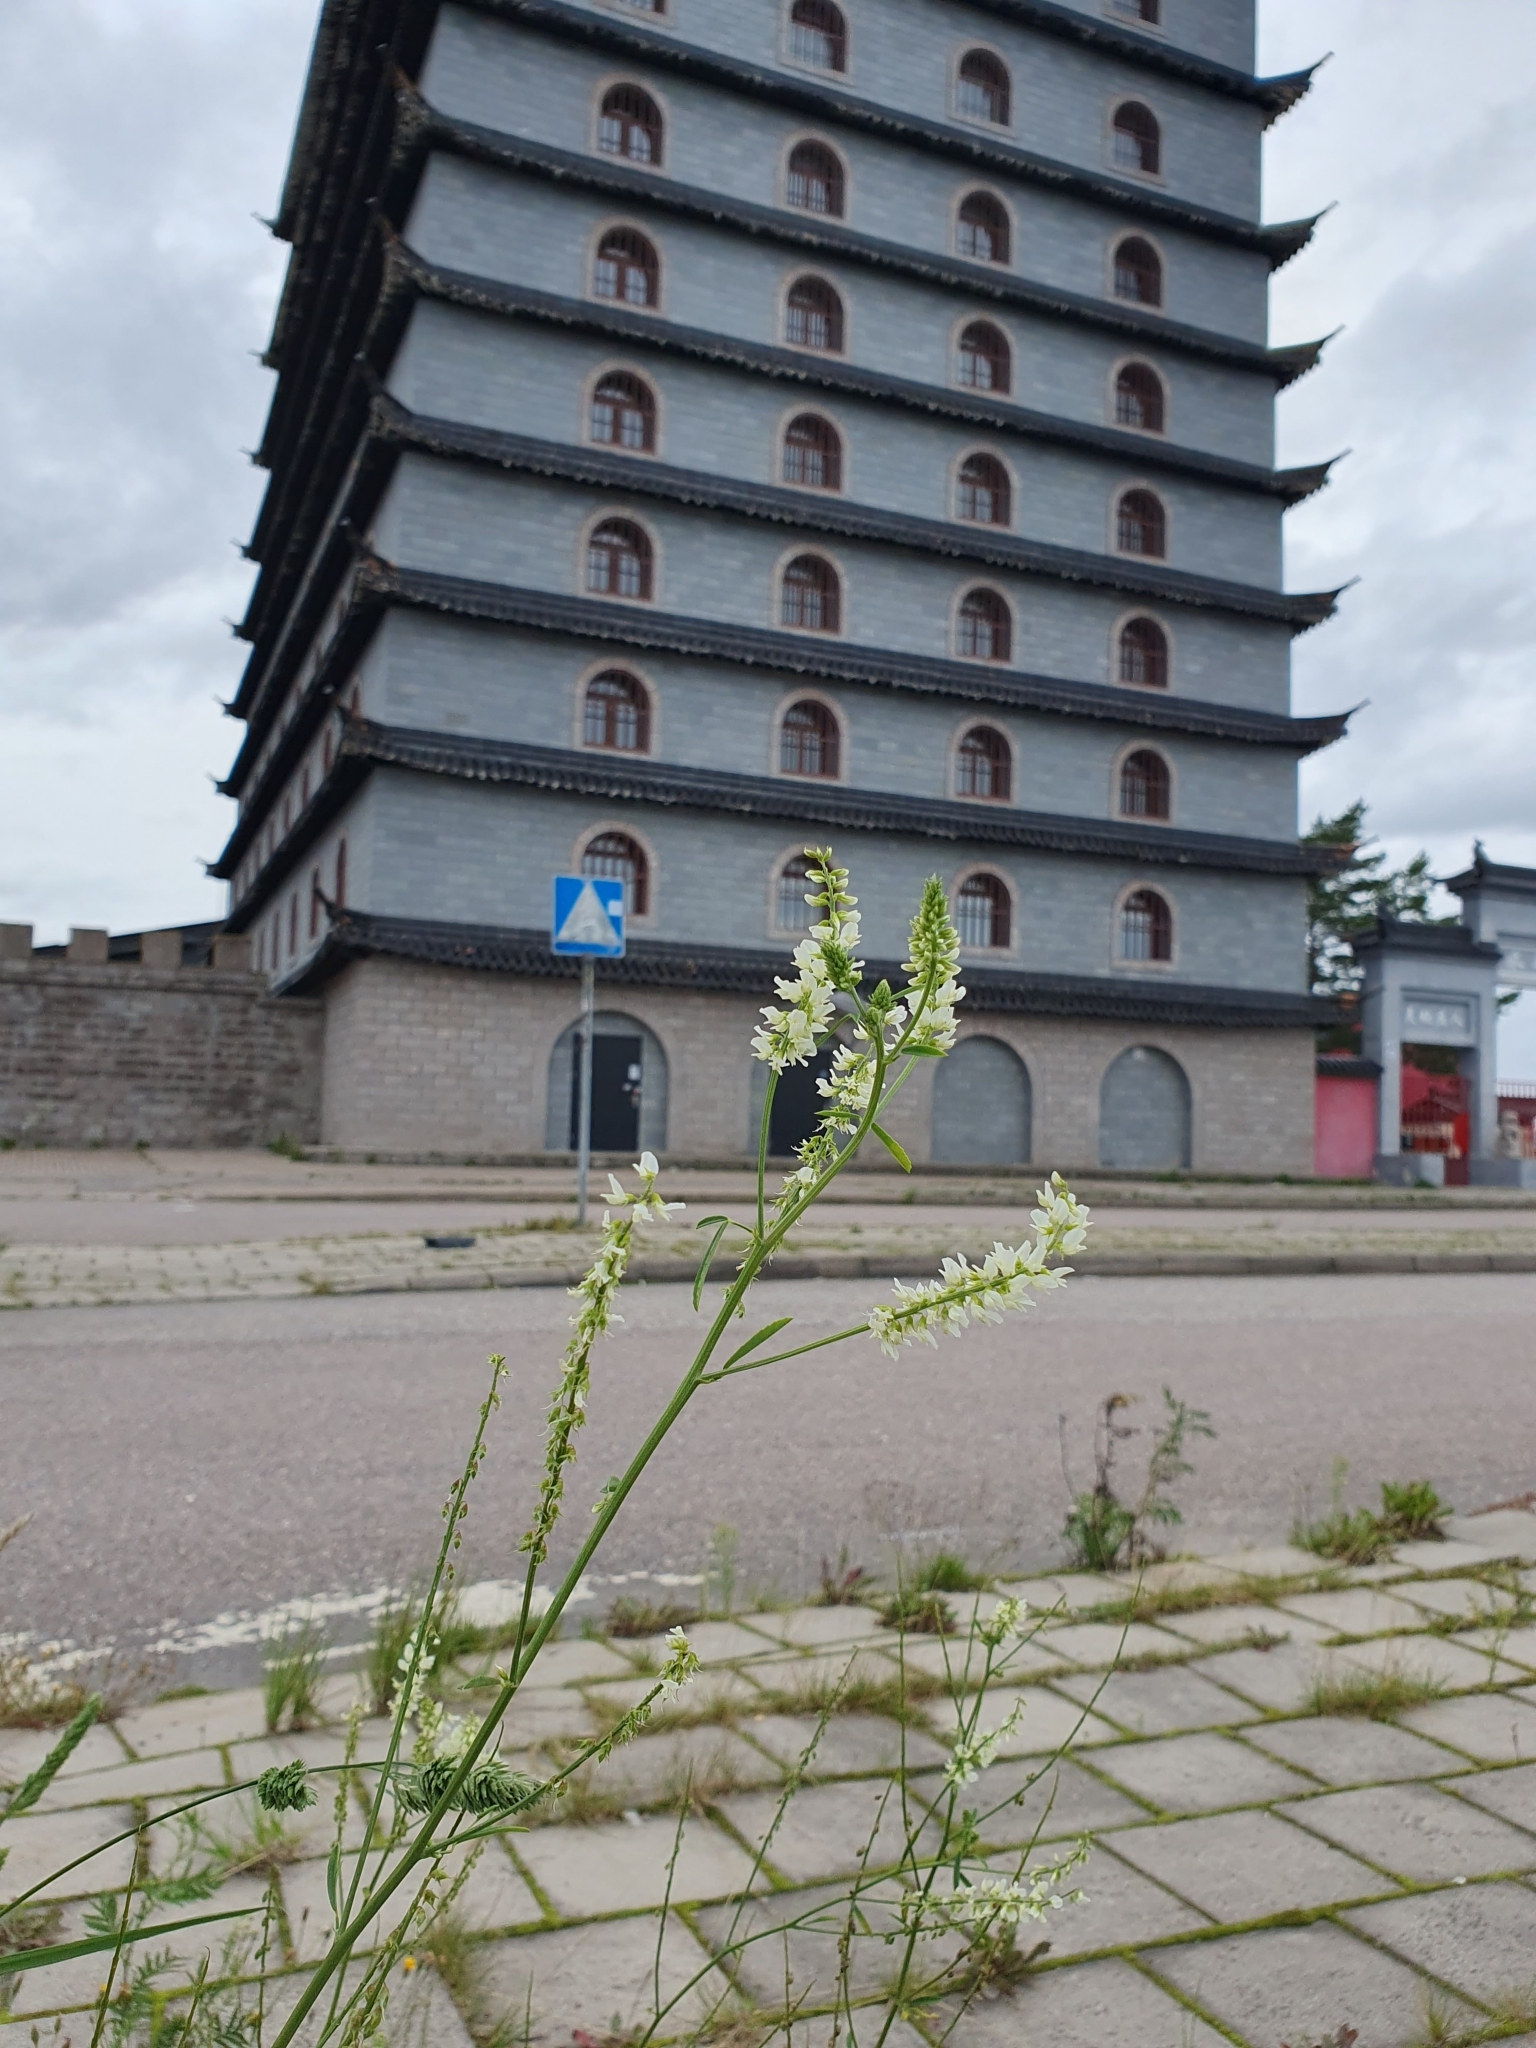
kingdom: Plantae
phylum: Tracheophyta
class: Magnoliopsida
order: Fabales
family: Fabaceae
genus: Melilotus
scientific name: Melilotus albus
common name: White melilot
